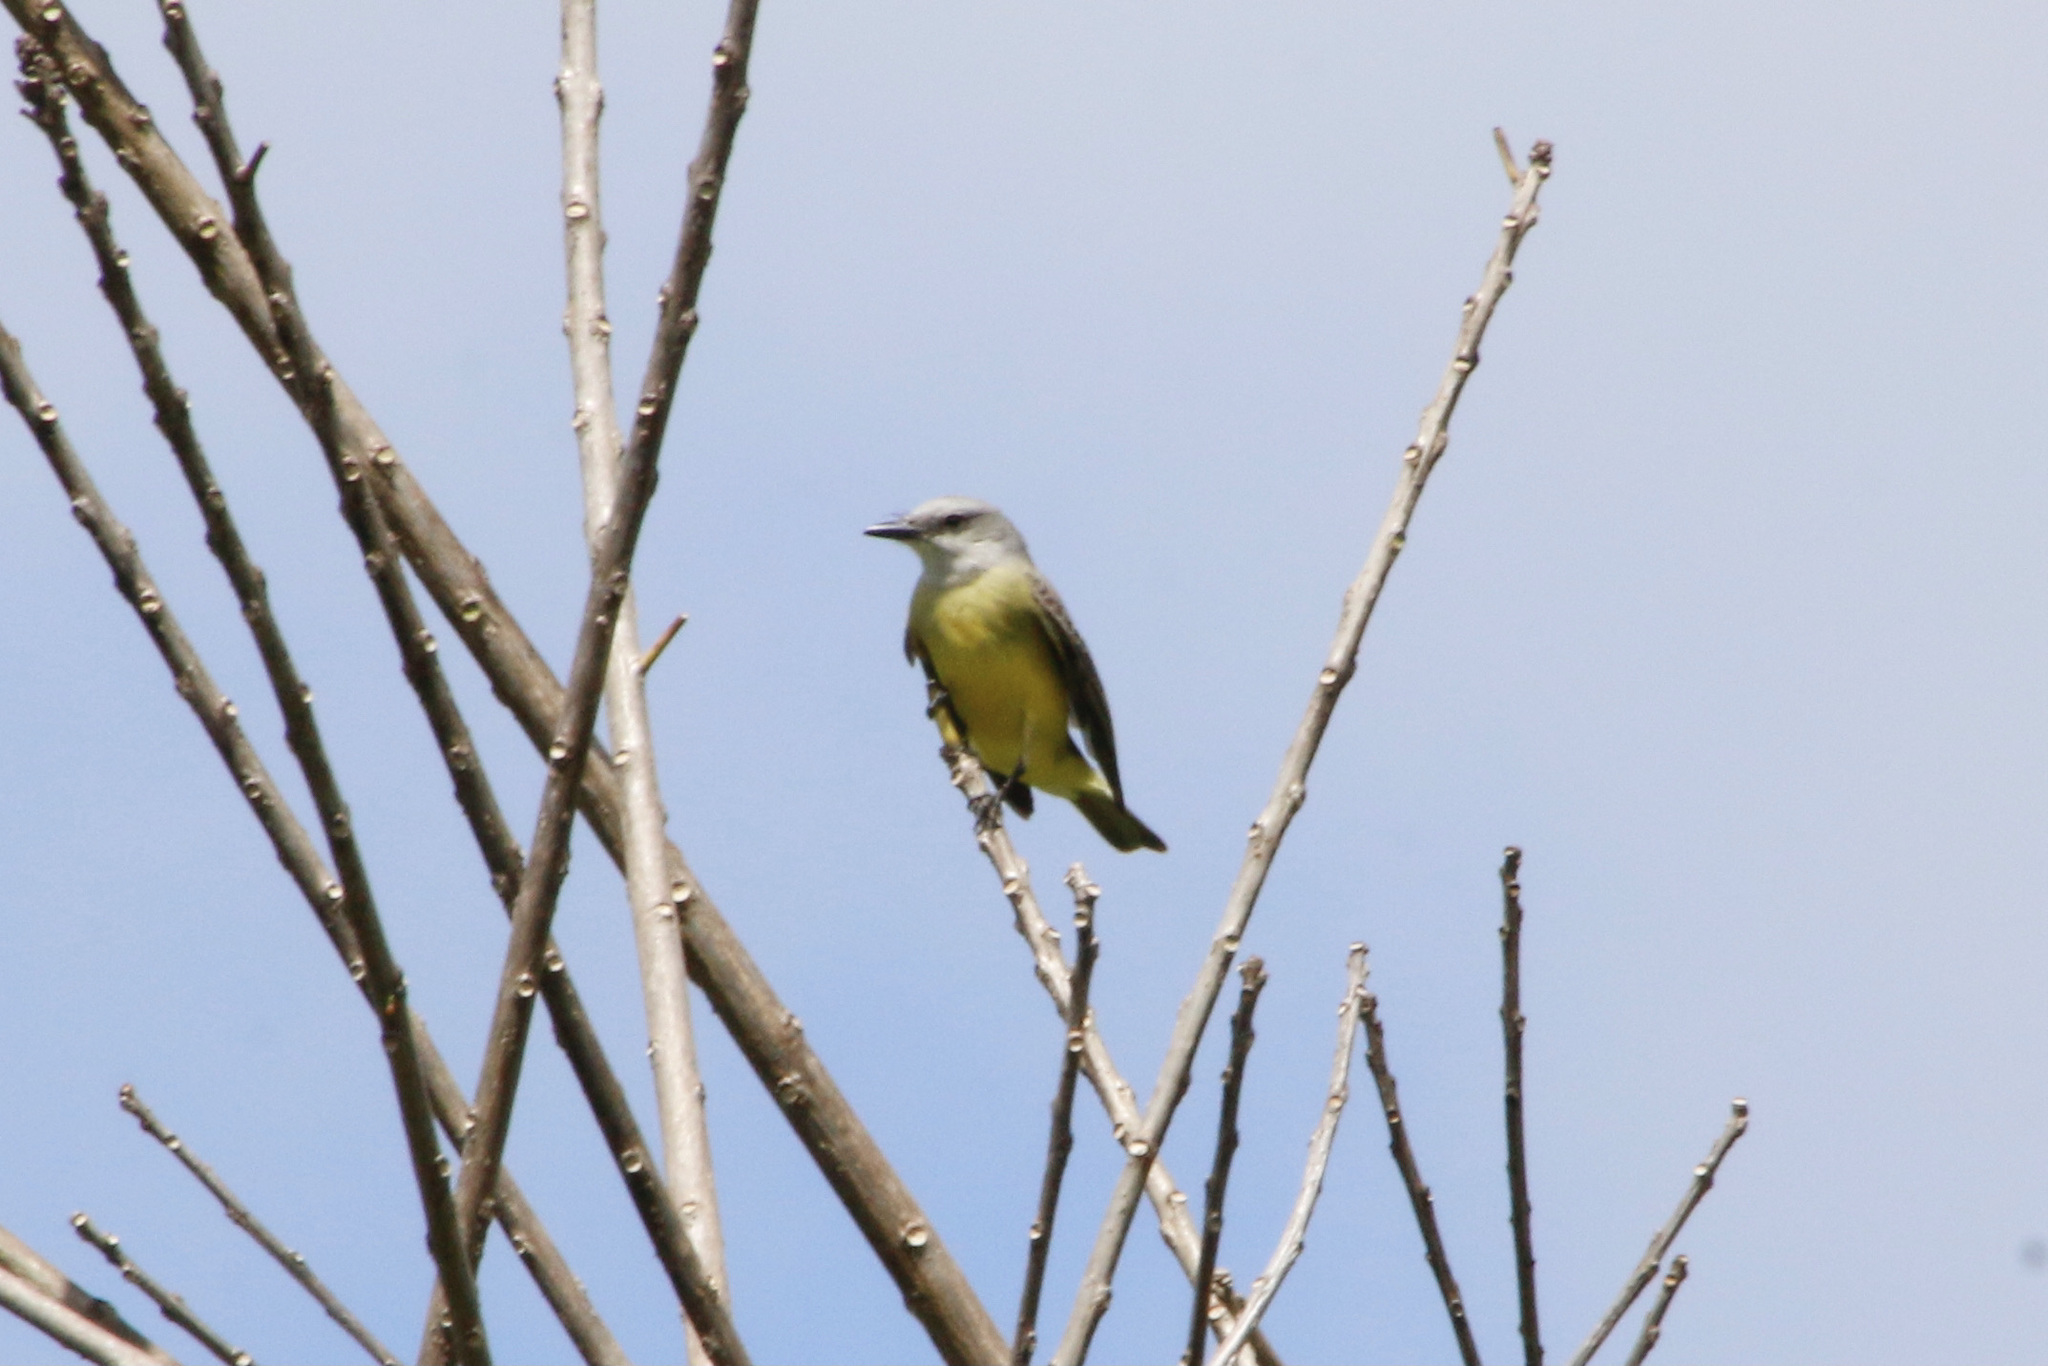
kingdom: Animalia
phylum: Chordata
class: Aves
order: Passeriformes
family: Tyrannidae
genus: Tyrannus
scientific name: Tyrannus melancholicus
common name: Tropical kingbird
